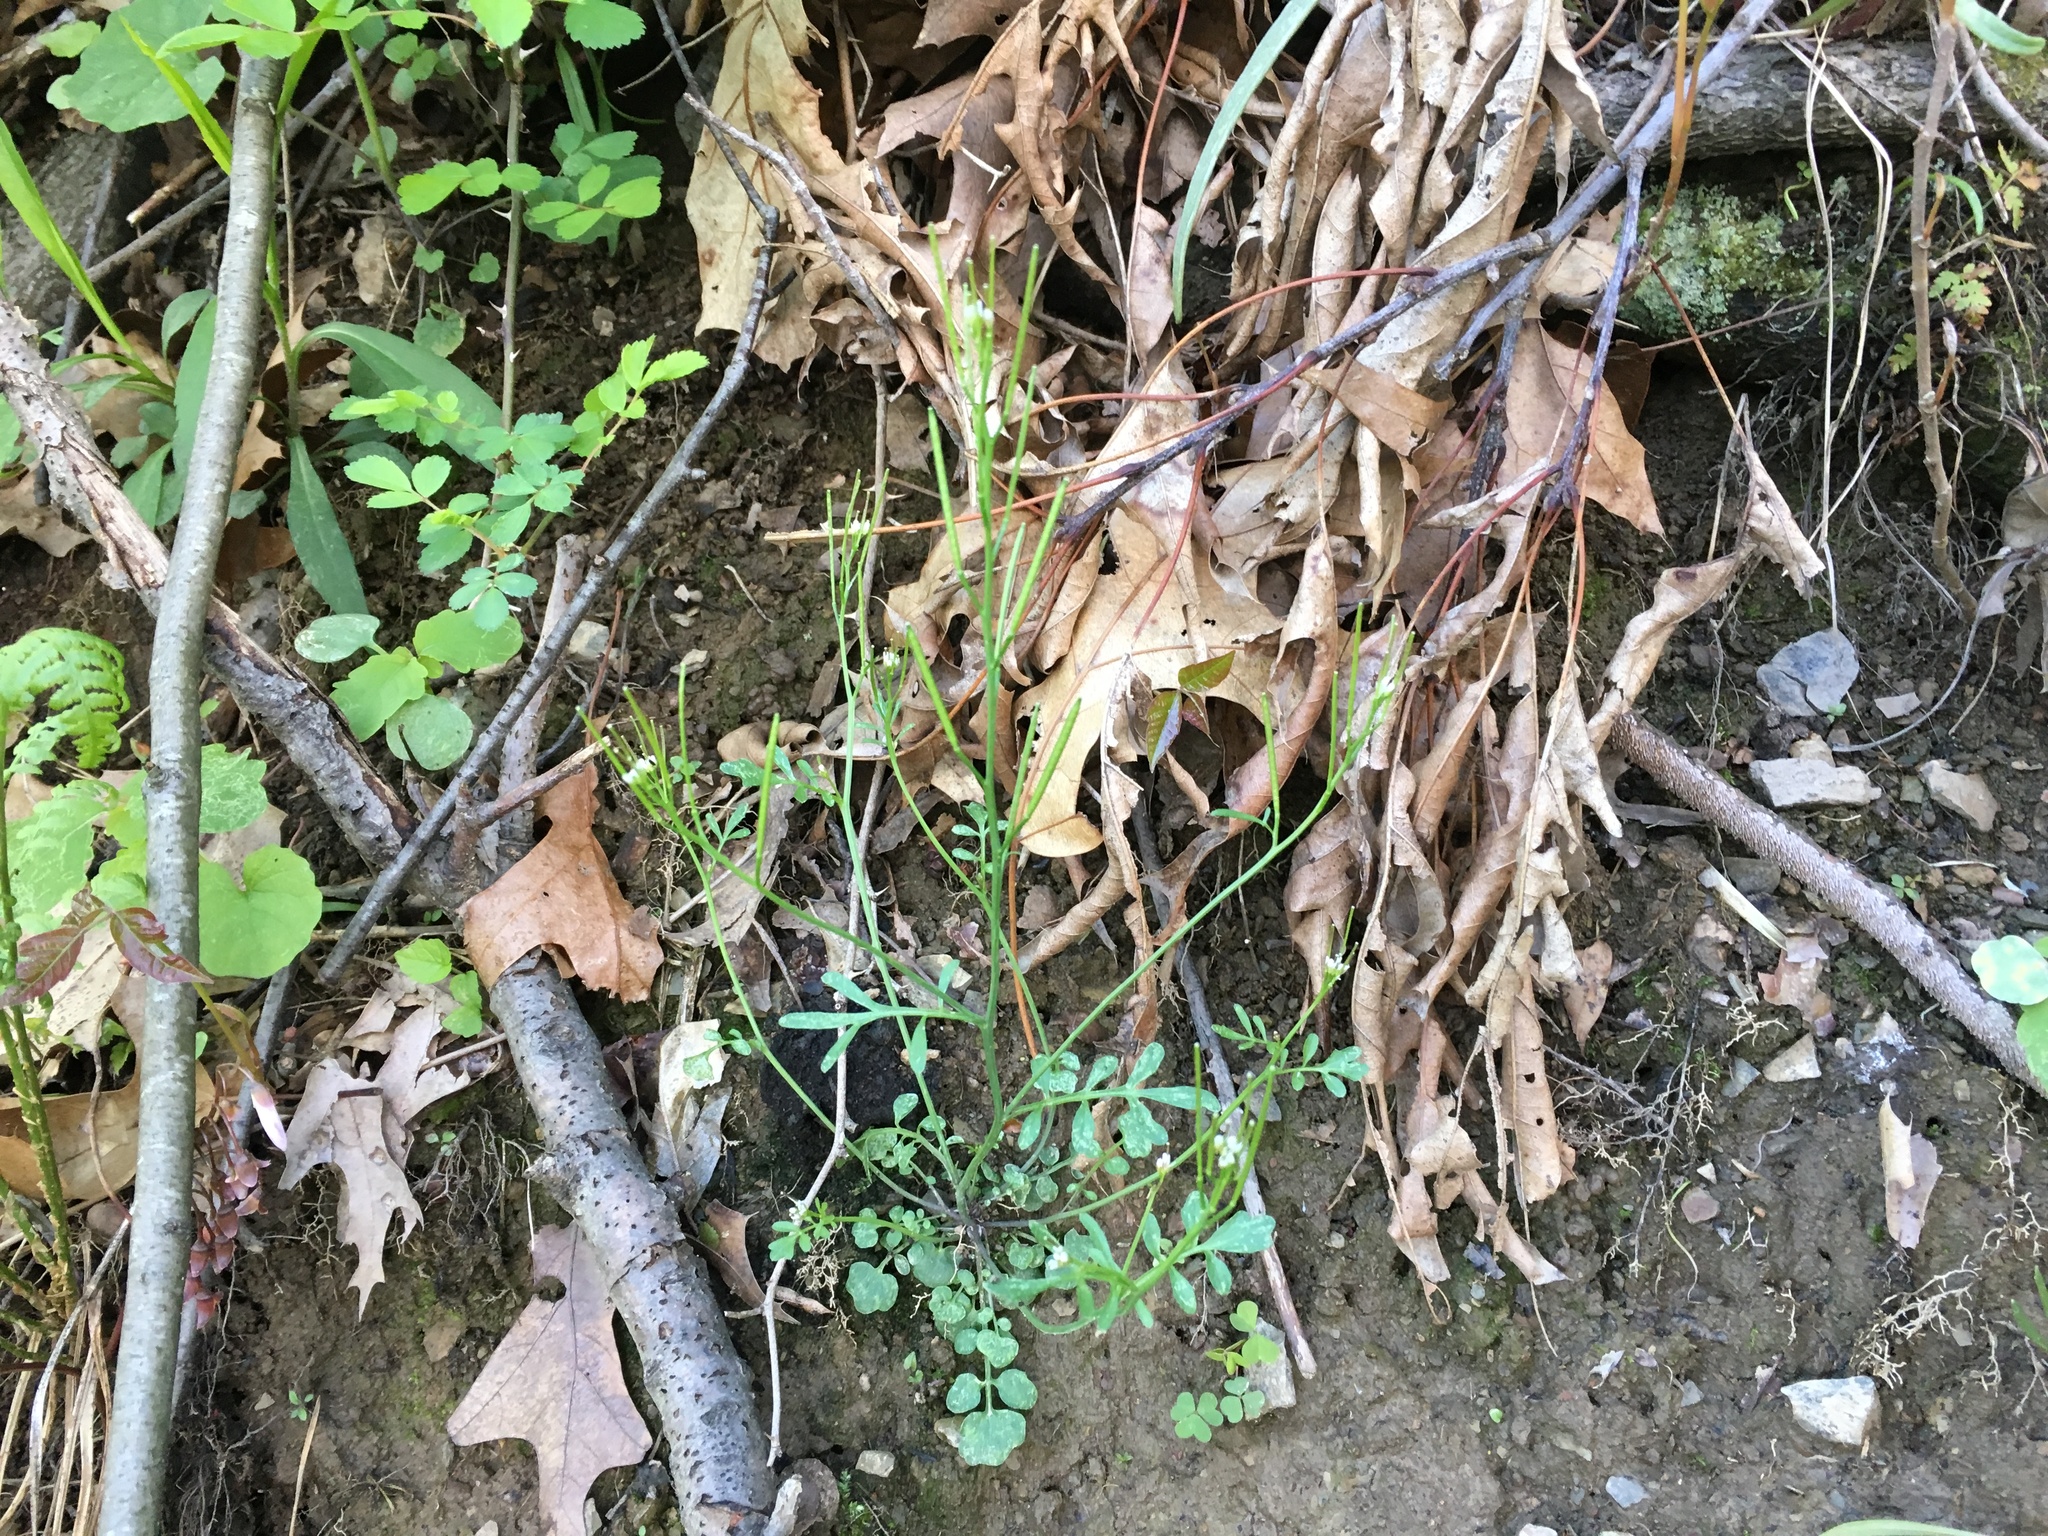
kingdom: Plantae
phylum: Tracheophyta
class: Magnoliopsida
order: Brassicales
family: Brassicaceae
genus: Cardamine
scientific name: Cardamine pensylvanica
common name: Pennsylvania bittercress
